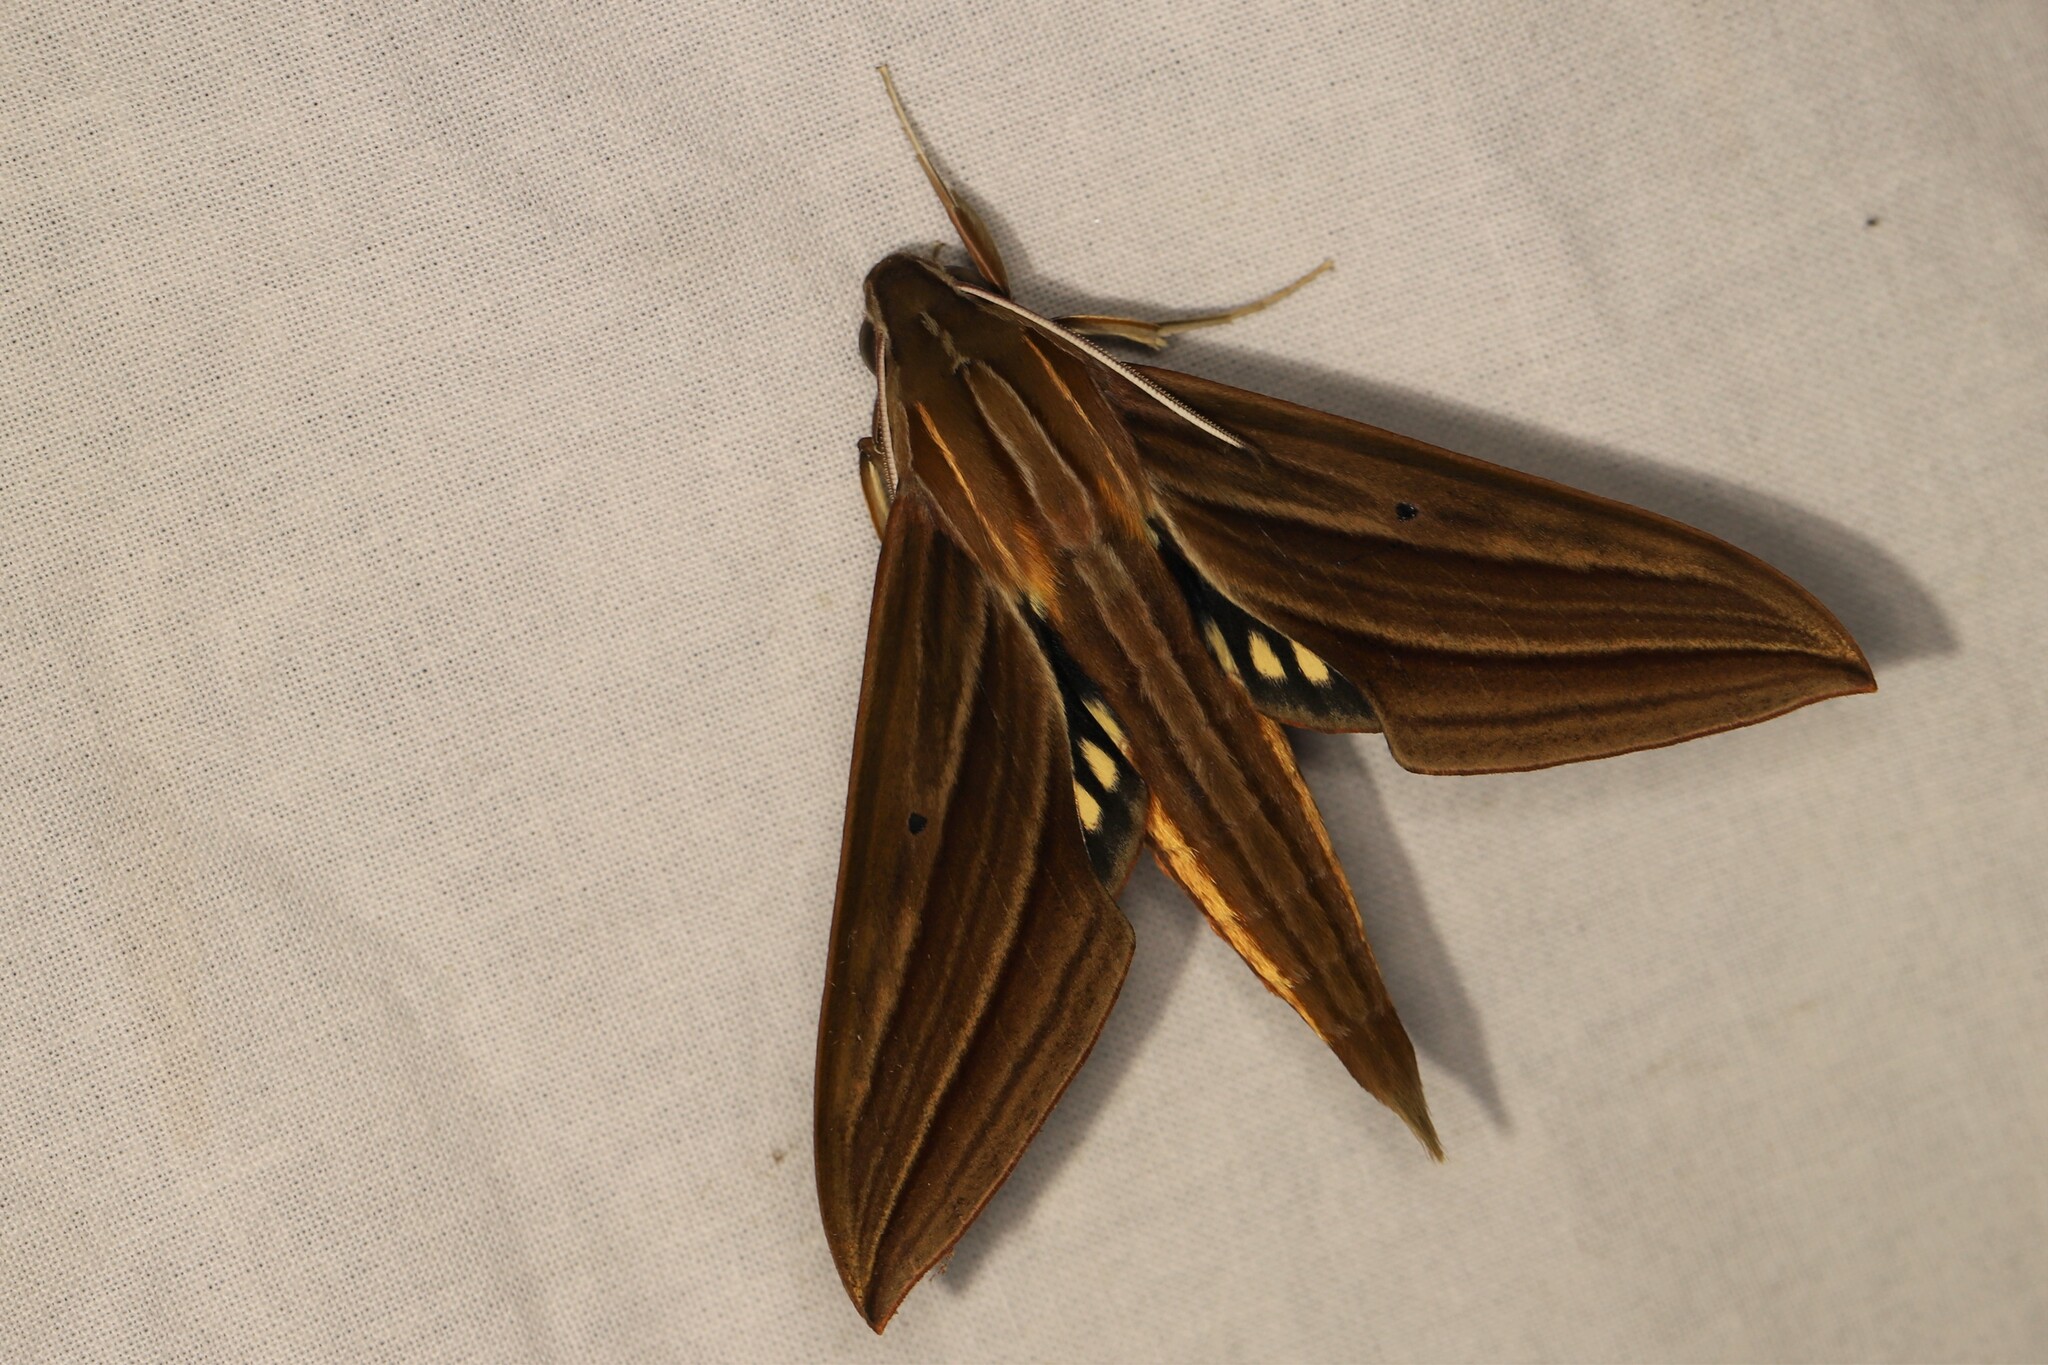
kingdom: Animalia
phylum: Arthropoda
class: Insecta
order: Lepidoptera
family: Sphingidae
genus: Xylophanes
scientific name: Xylophanes kiefferi
